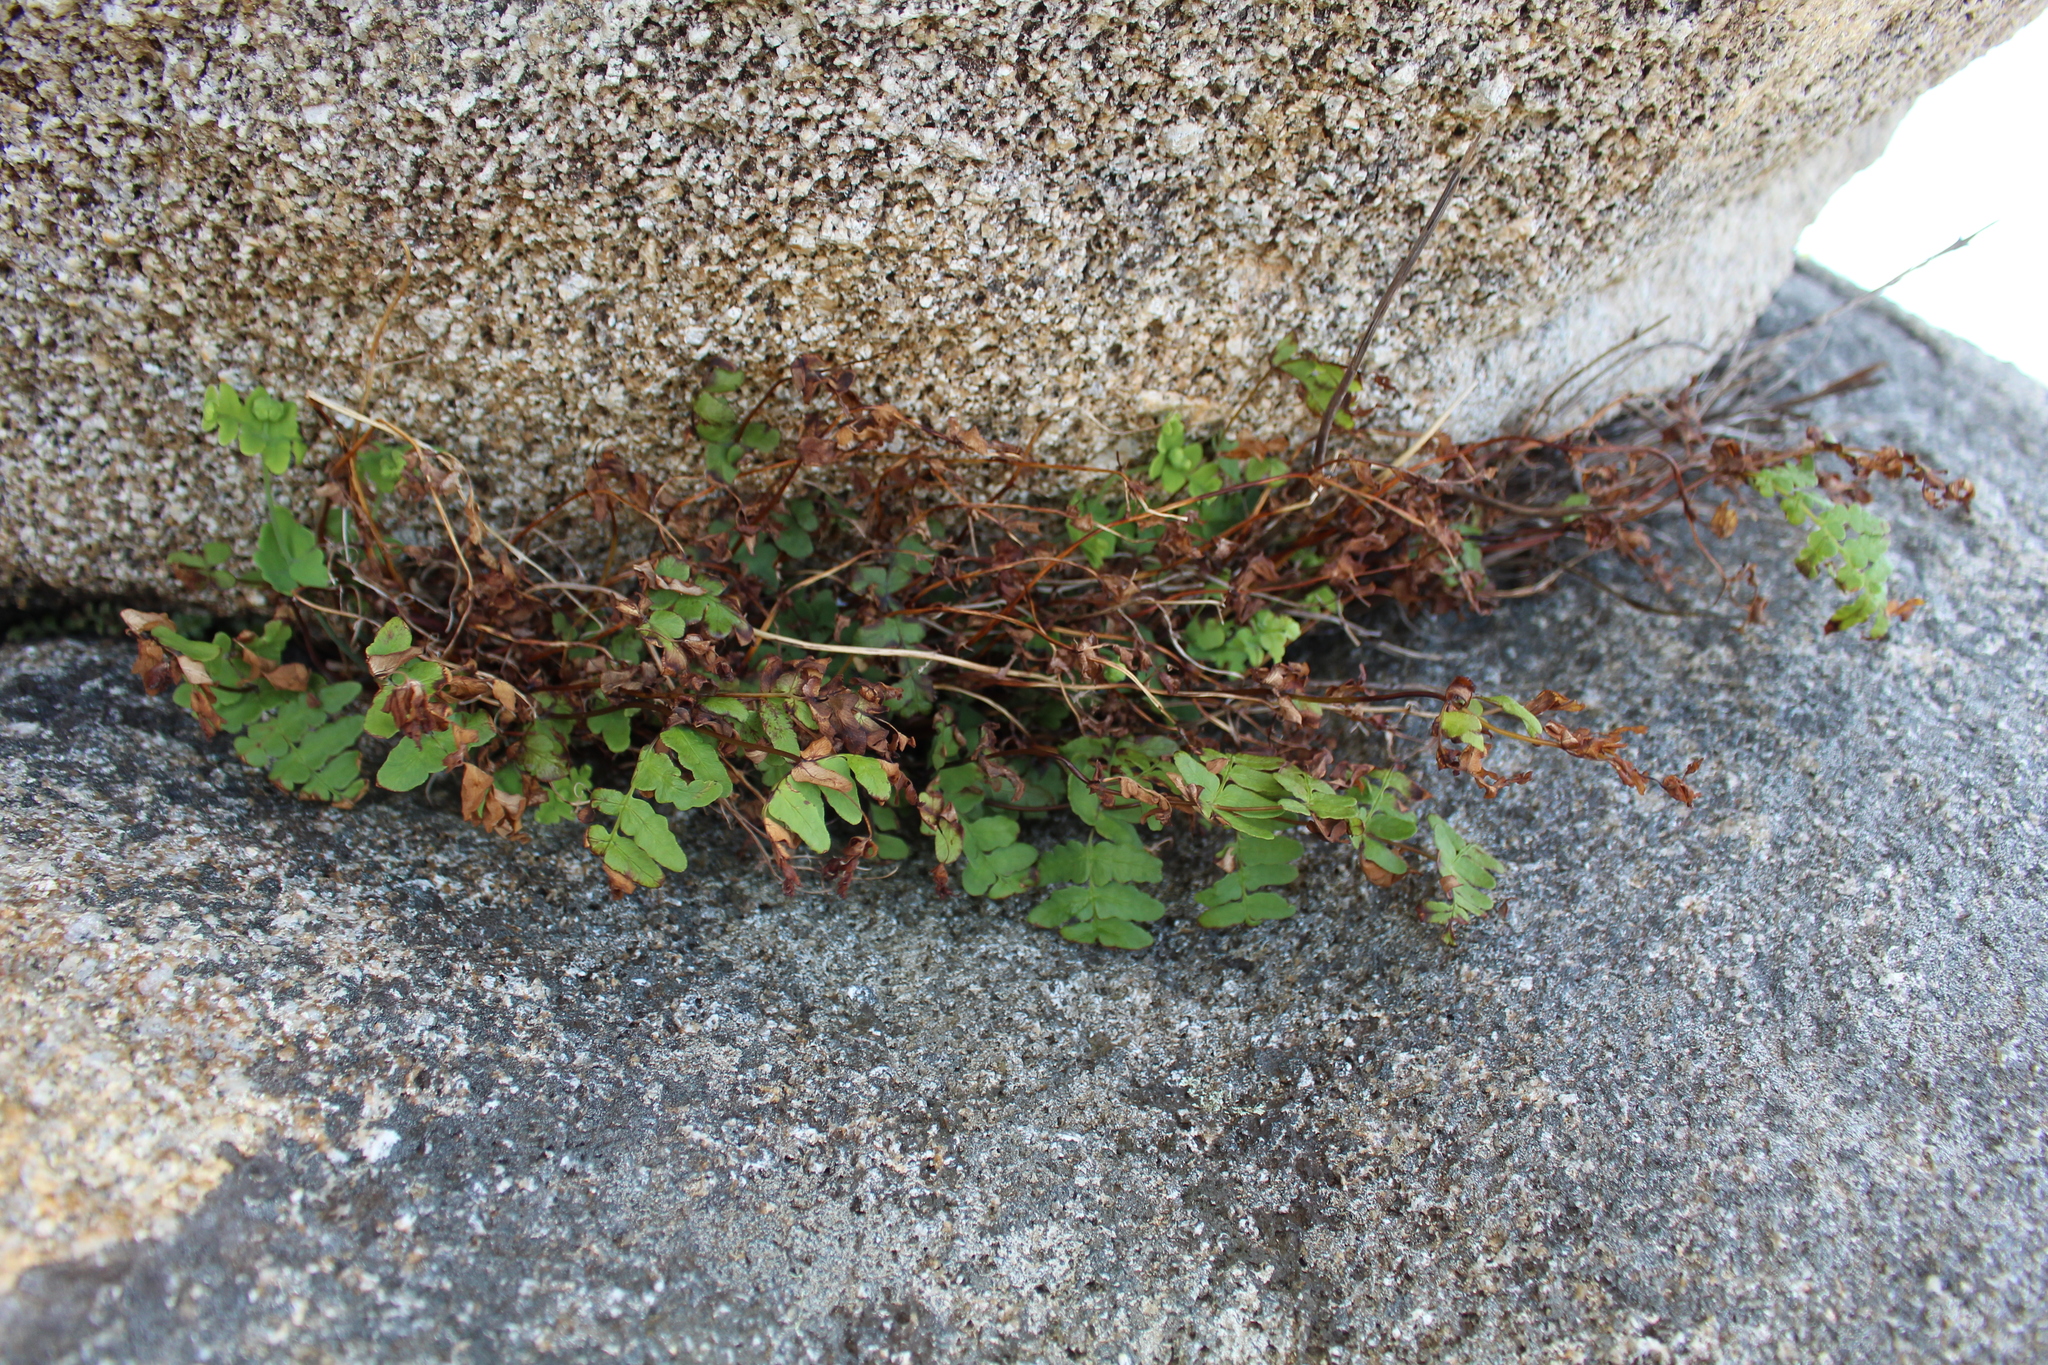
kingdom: Plantae
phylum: Tracheophyta
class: Polypodiopsida
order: Polypodiales
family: Dennstaedtiaceae
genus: Histiopteris
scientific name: Histiopteris incisa
